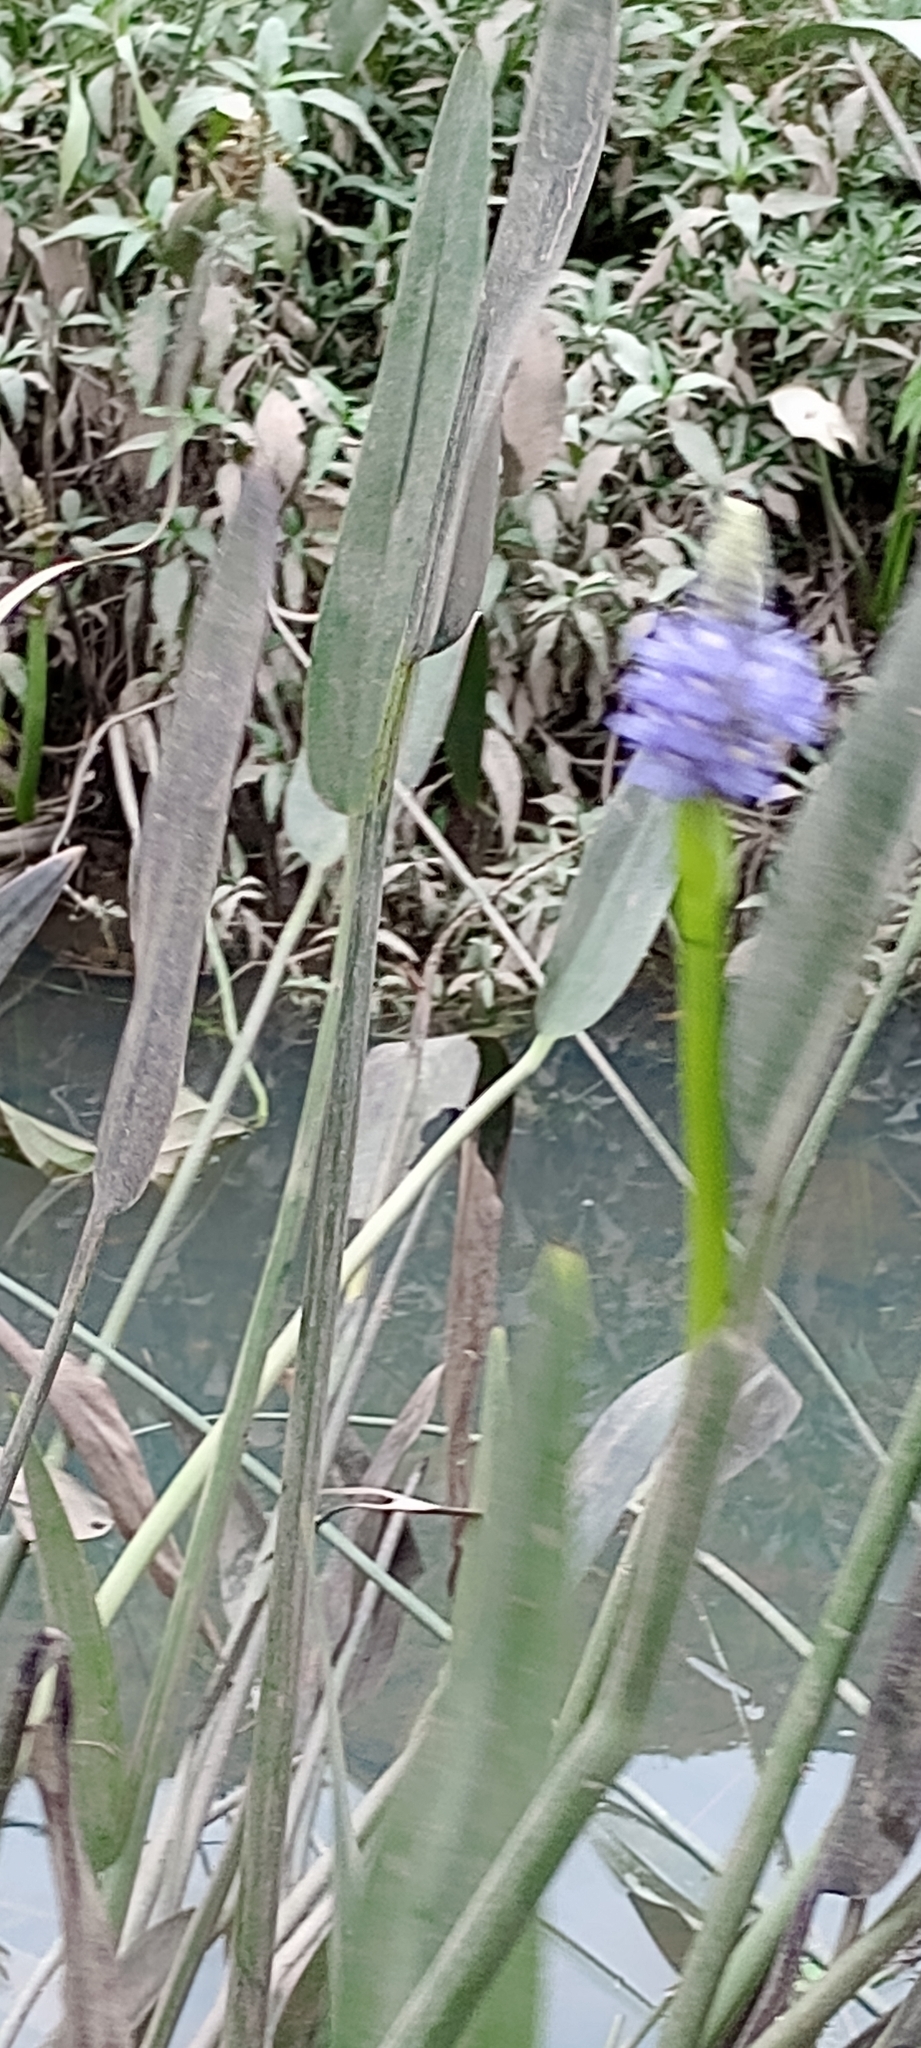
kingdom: Plantae
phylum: Tracheophyta
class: Liliopsida
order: Commelinales
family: Pontederiaceae
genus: Pontederia
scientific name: Pontederia cordata
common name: Pickerelweed
